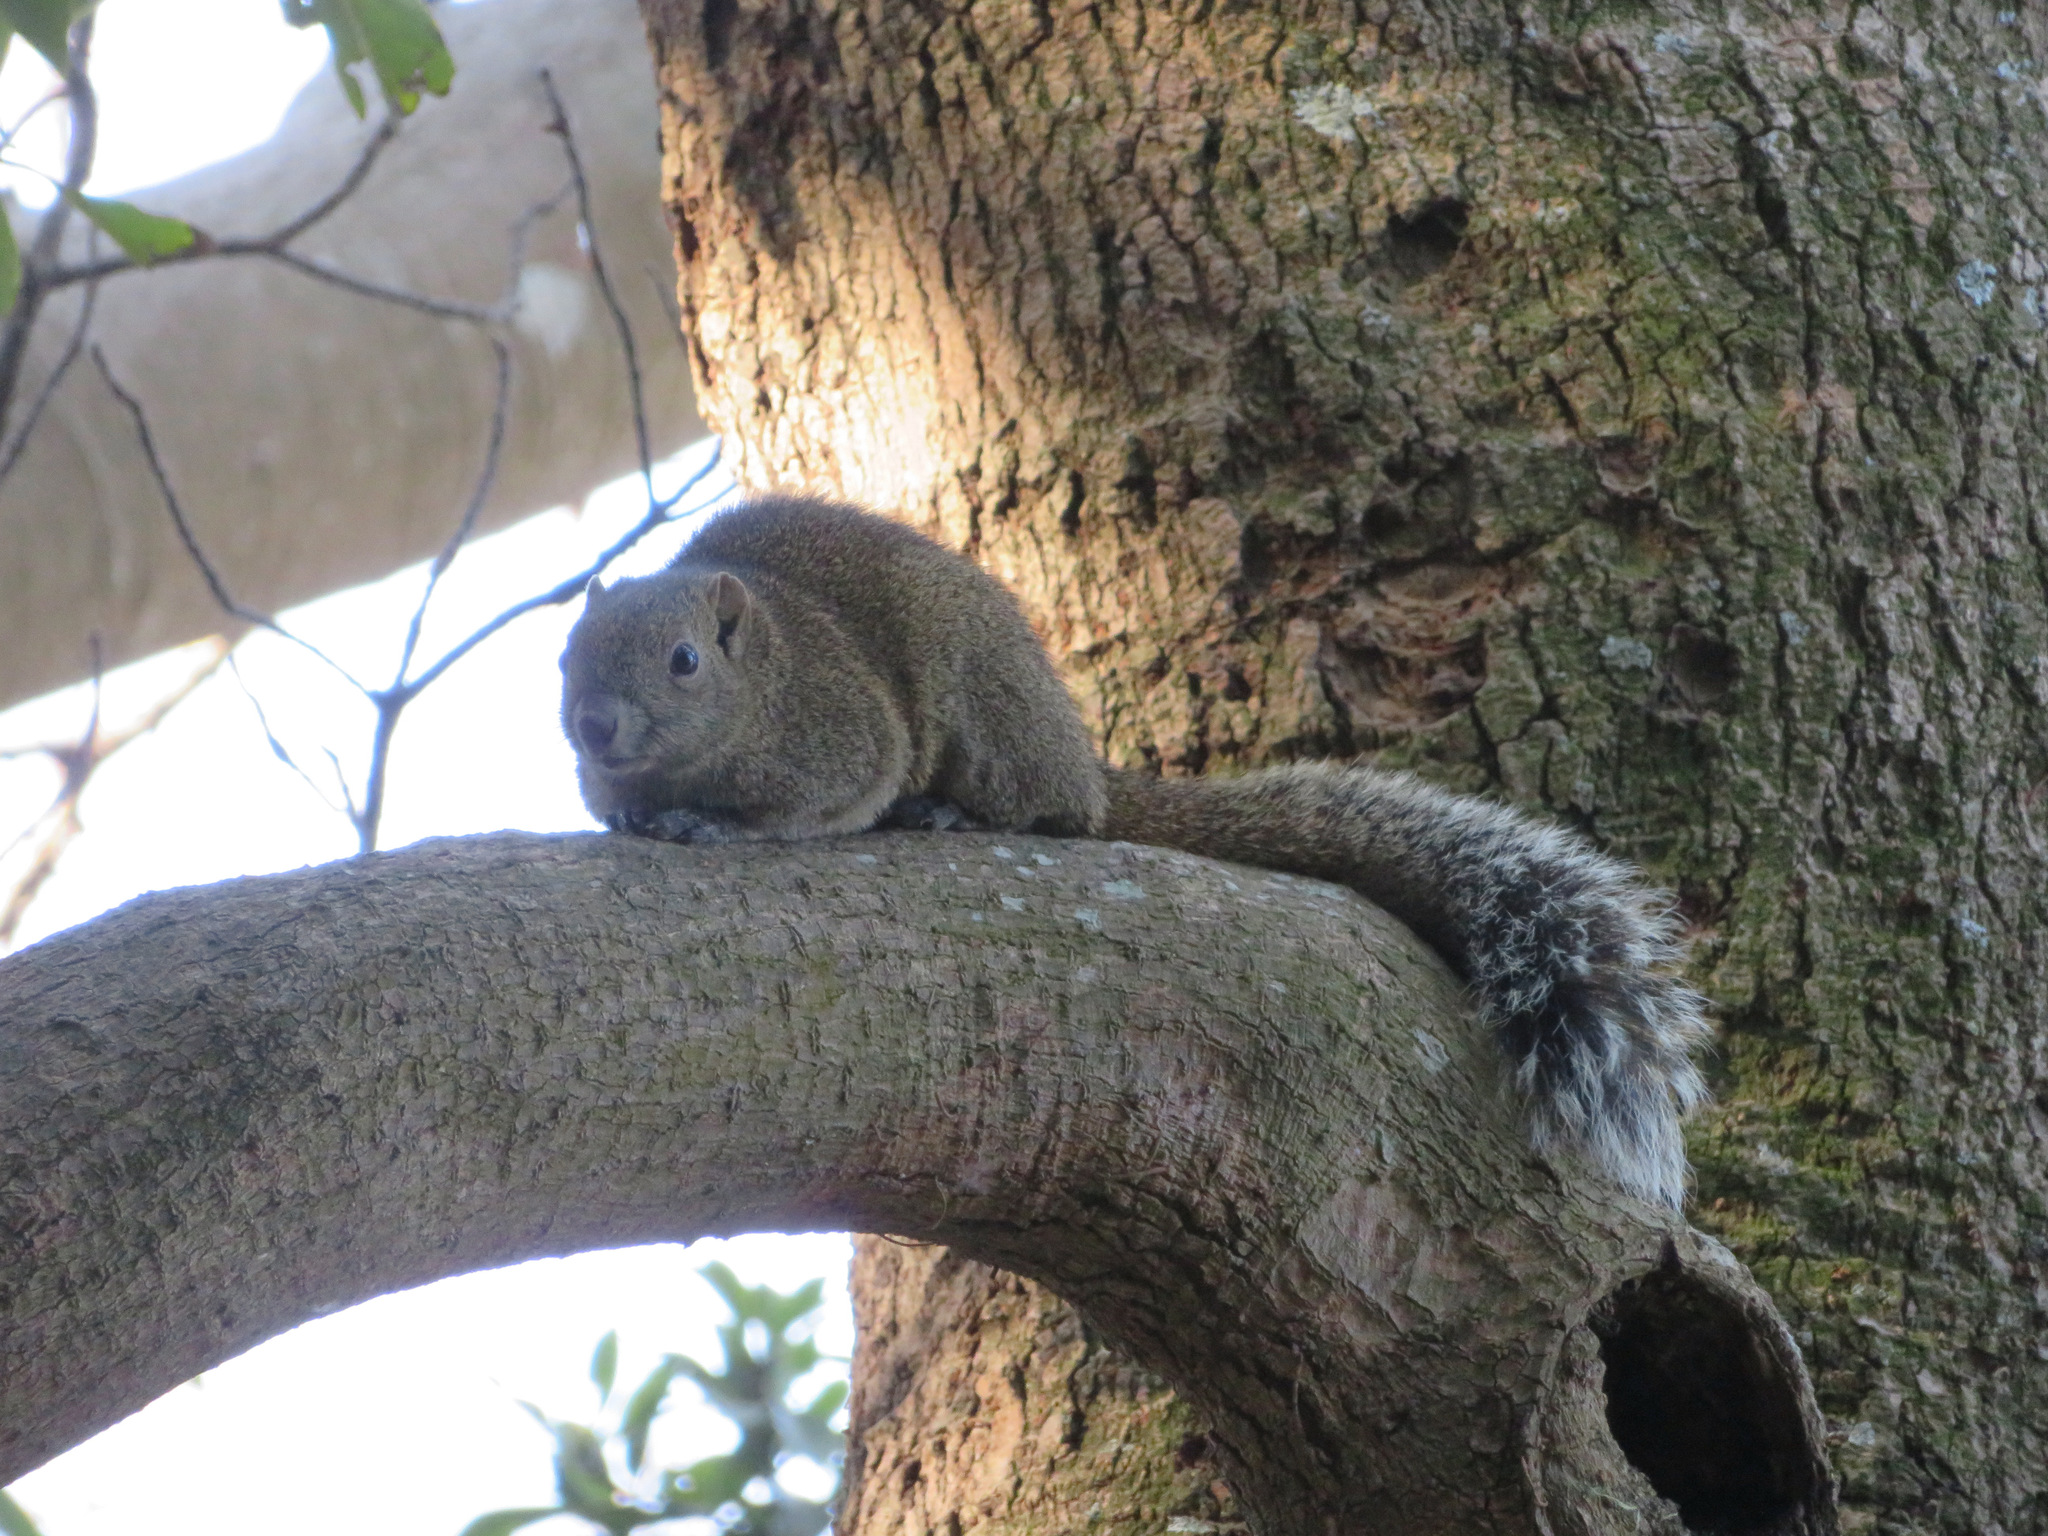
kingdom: Animalia
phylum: Chordata
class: Mammalia
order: Rodentia
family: Sciuridae
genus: Callosciurus
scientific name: Callosciurus erythraeus
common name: Pallas's squirrel
